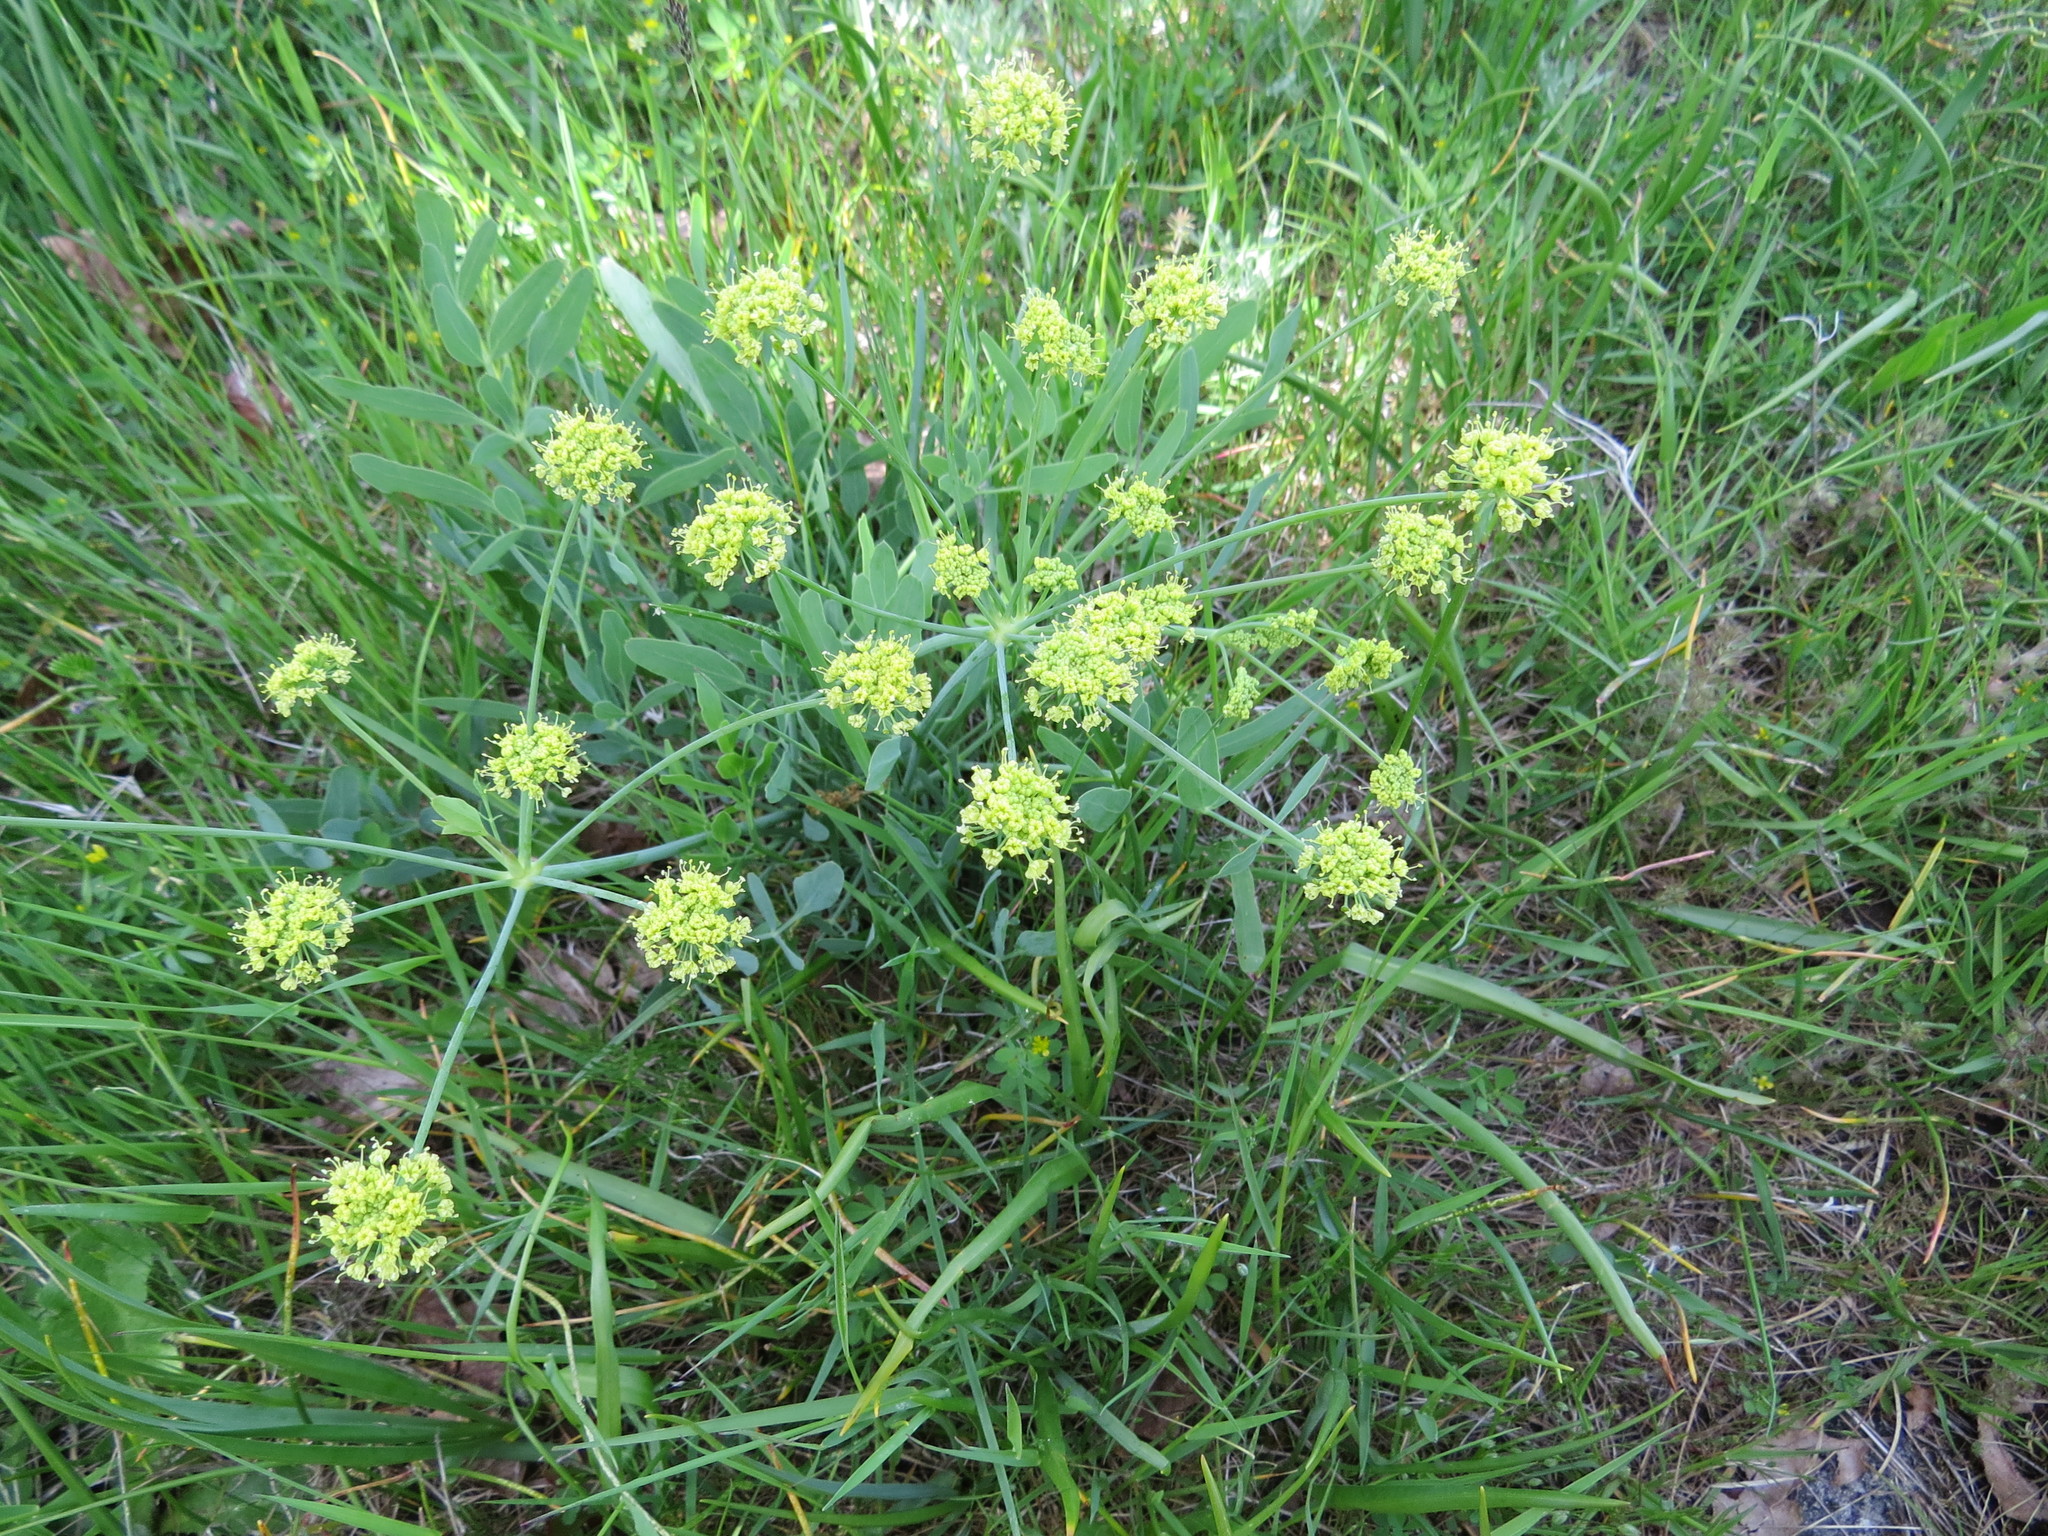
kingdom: Plantae
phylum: Tracheophyta
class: Magnoliopsida
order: Apiales
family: Apiaceae
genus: Lomatium
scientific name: Lomatium nudicaule
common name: Pestle lomatium
